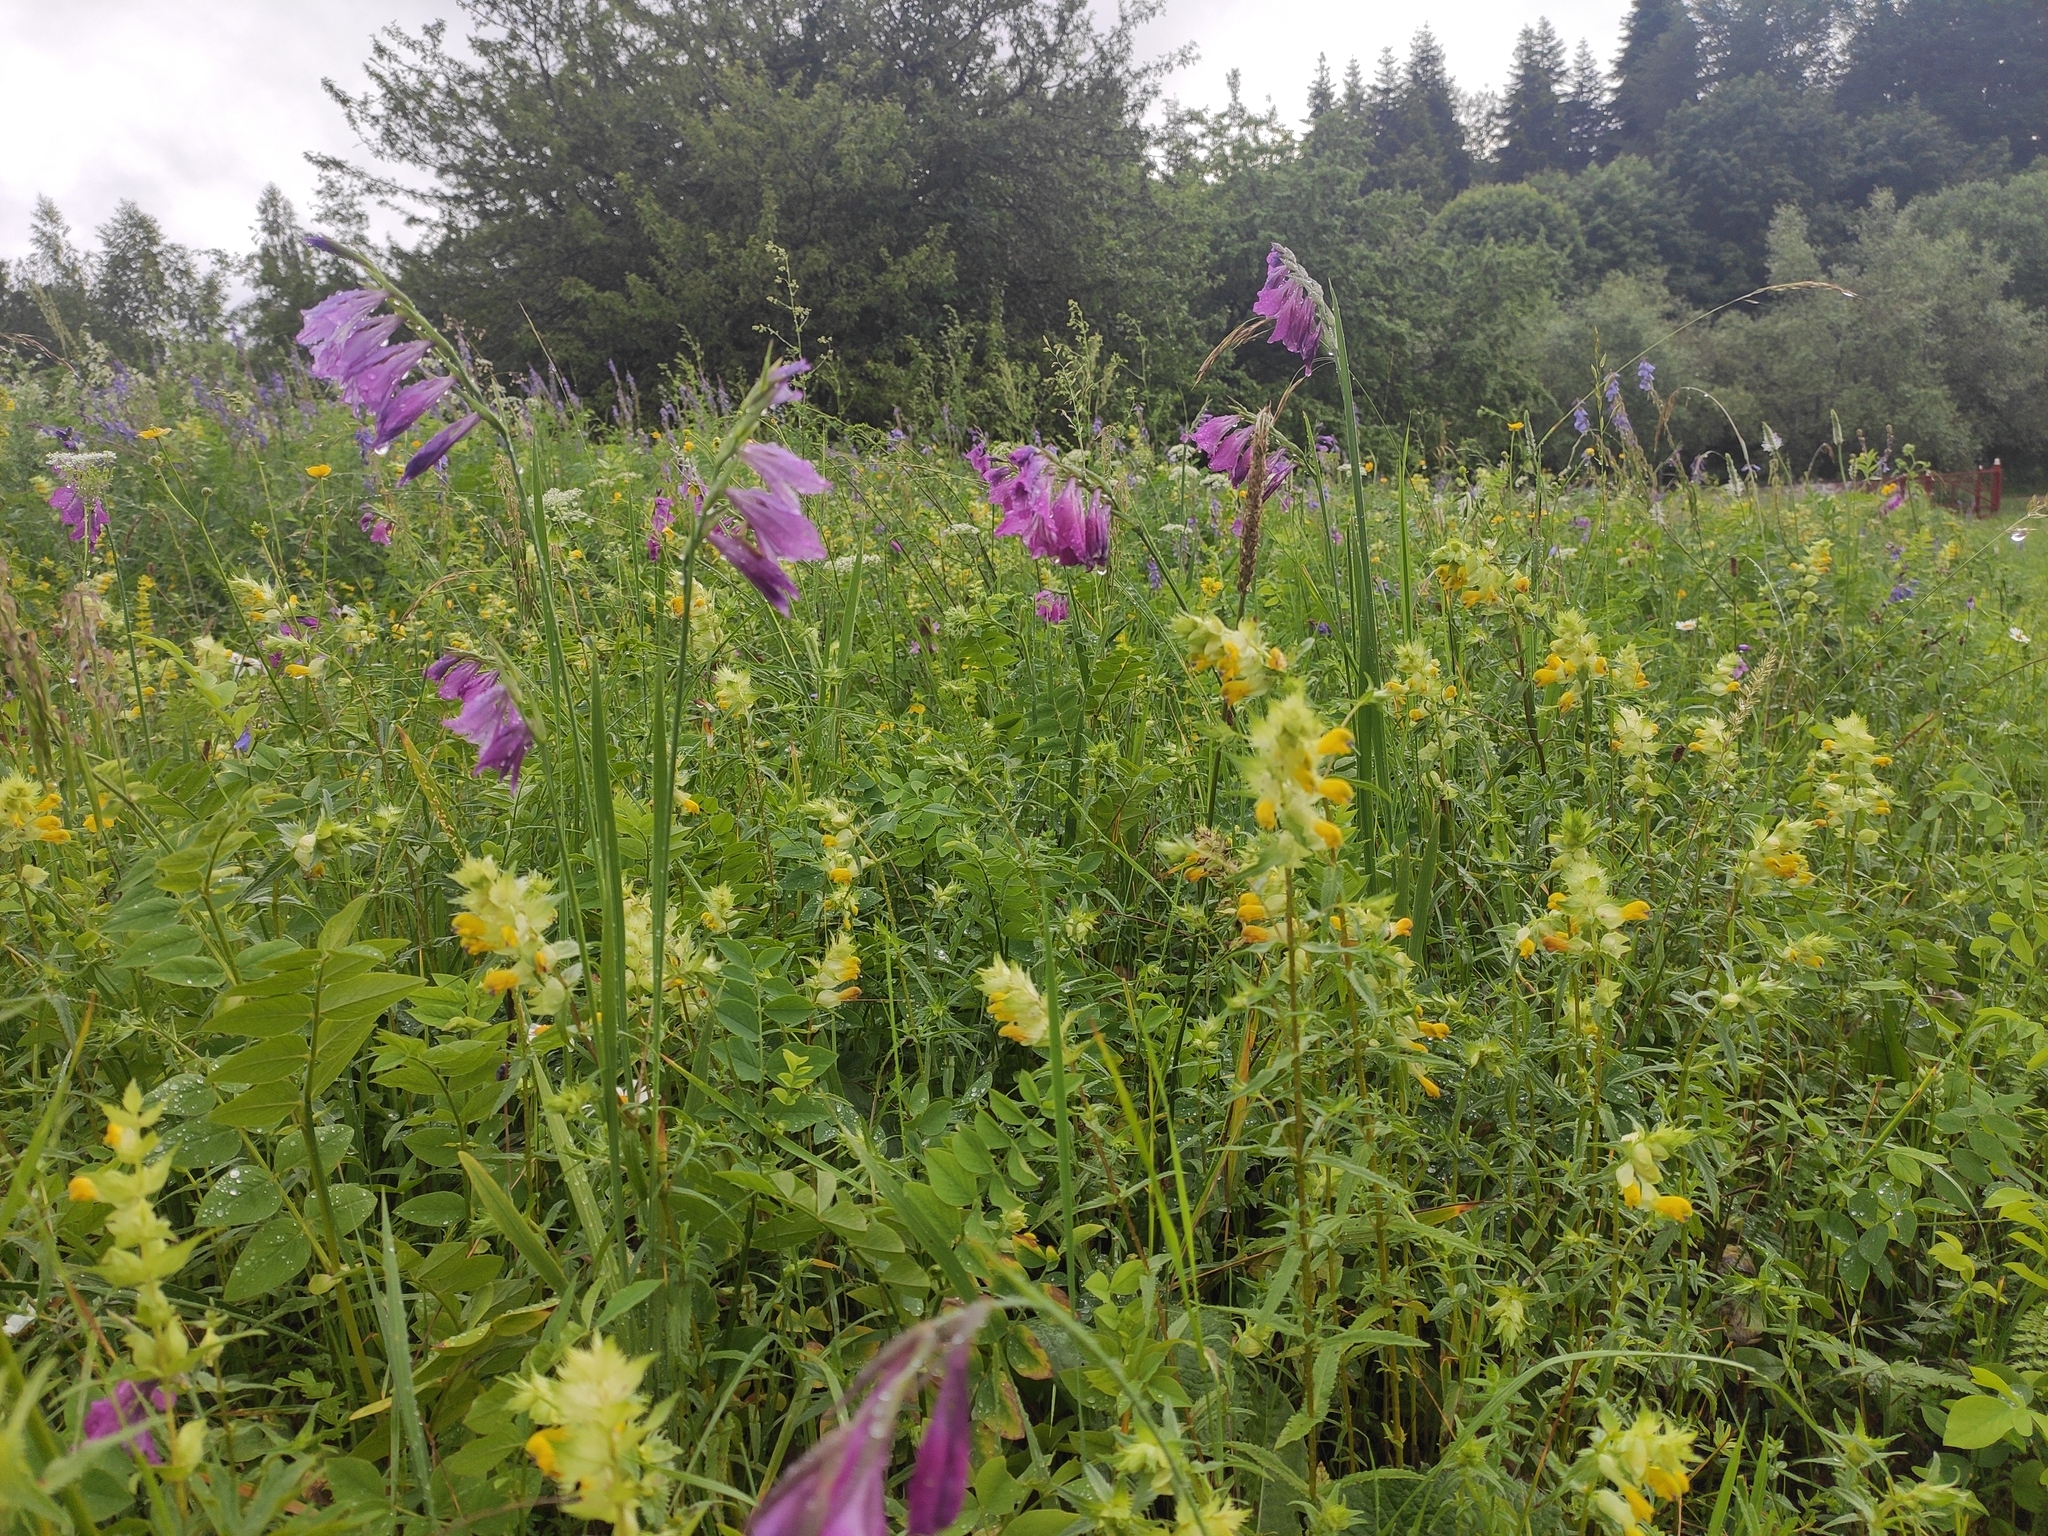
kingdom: Plantae
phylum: Tracheophyta
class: Liliopsida
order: Asparagales
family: Iridaceae
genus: Gladiolus
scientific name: Gladiolus tenuis
